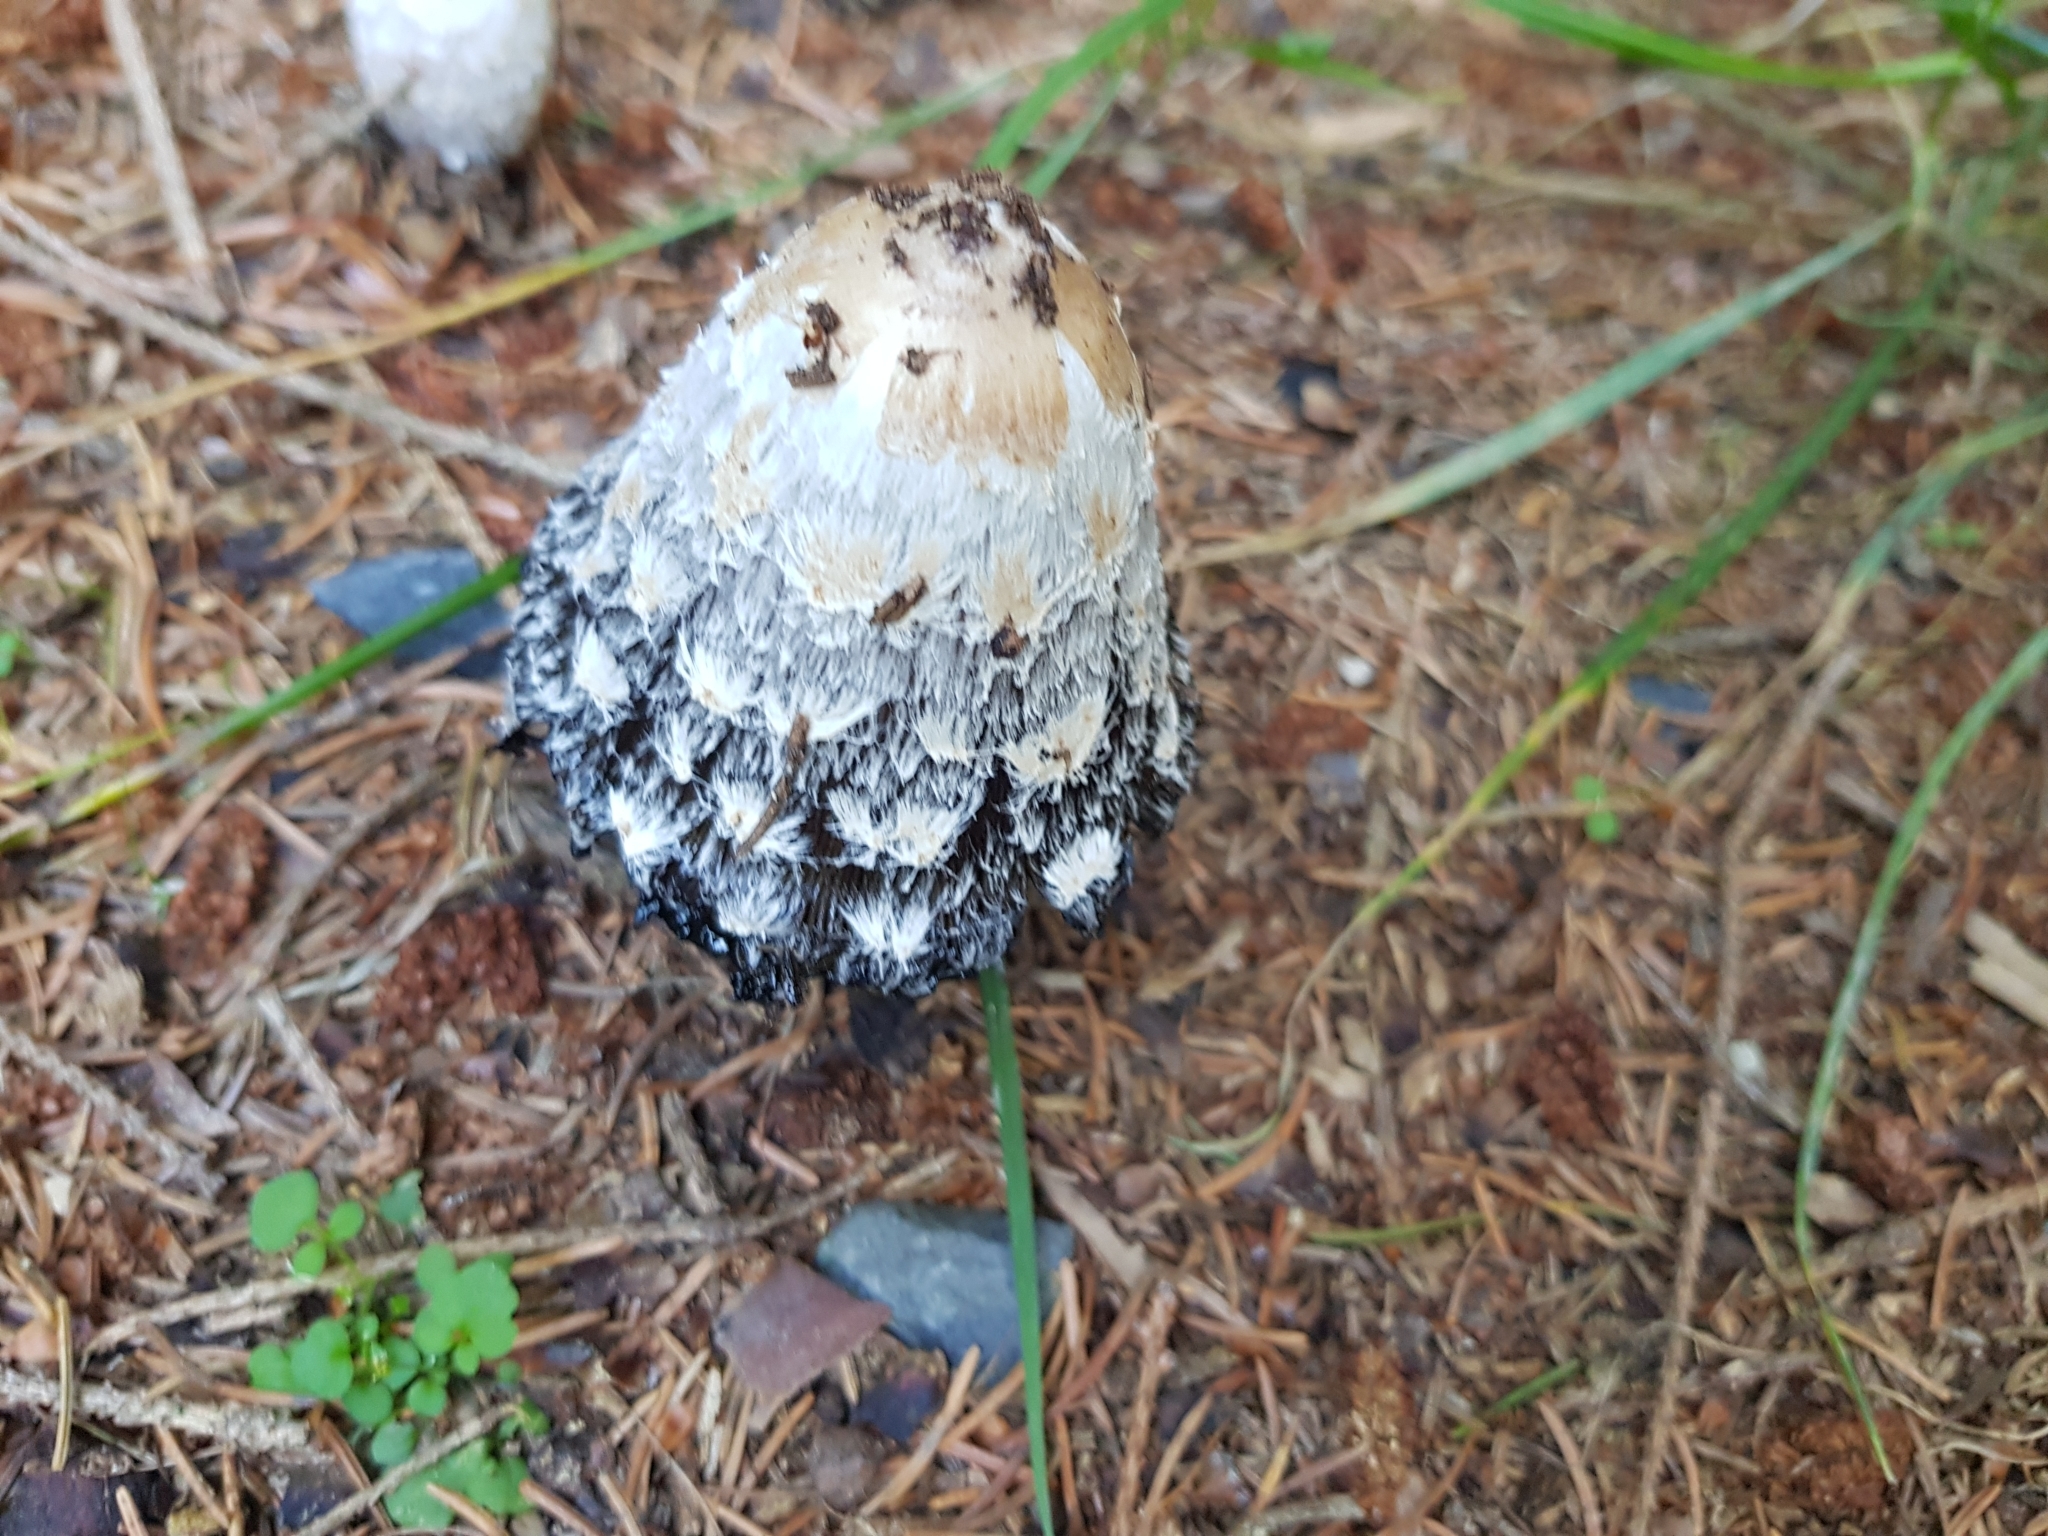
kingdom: Fungi
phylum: Basidiomycota
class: Agaricomycetes
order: Agaricales
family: Agaricaceae
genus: Coprinus
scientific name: Coprinus comatus
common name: Lawyer's wig
